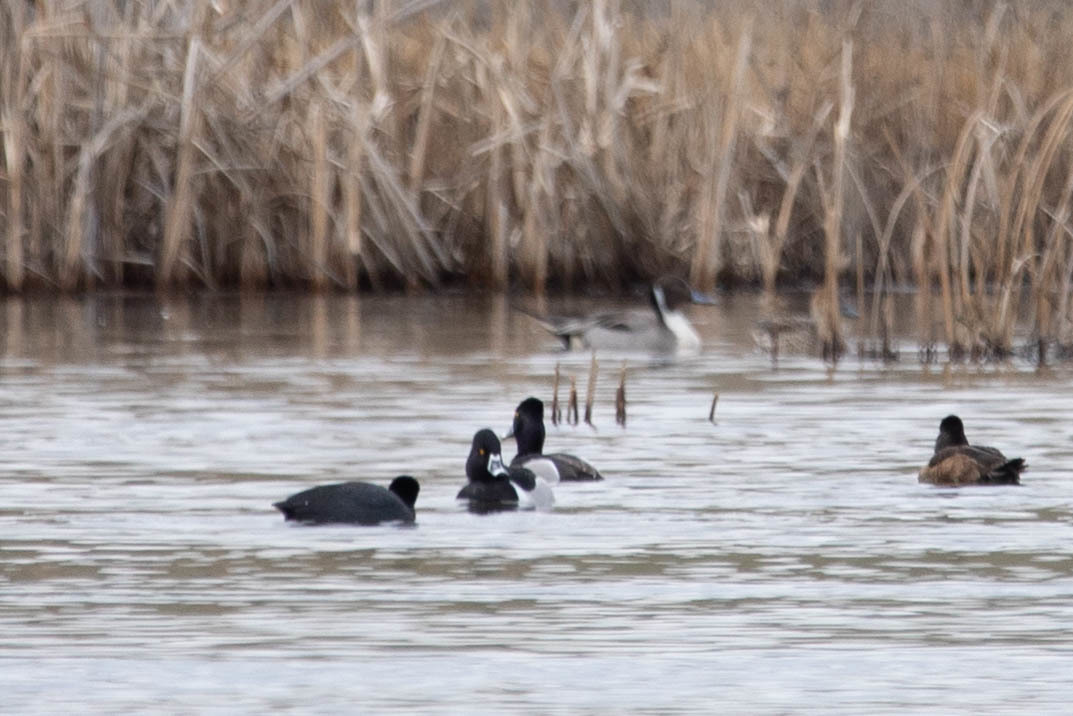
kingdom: Animalia
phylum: Chordata
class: Aves
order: Anseriformes
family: Anatidae
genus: Aythya
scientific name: Aythya collaris
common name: Ring-necked duck
